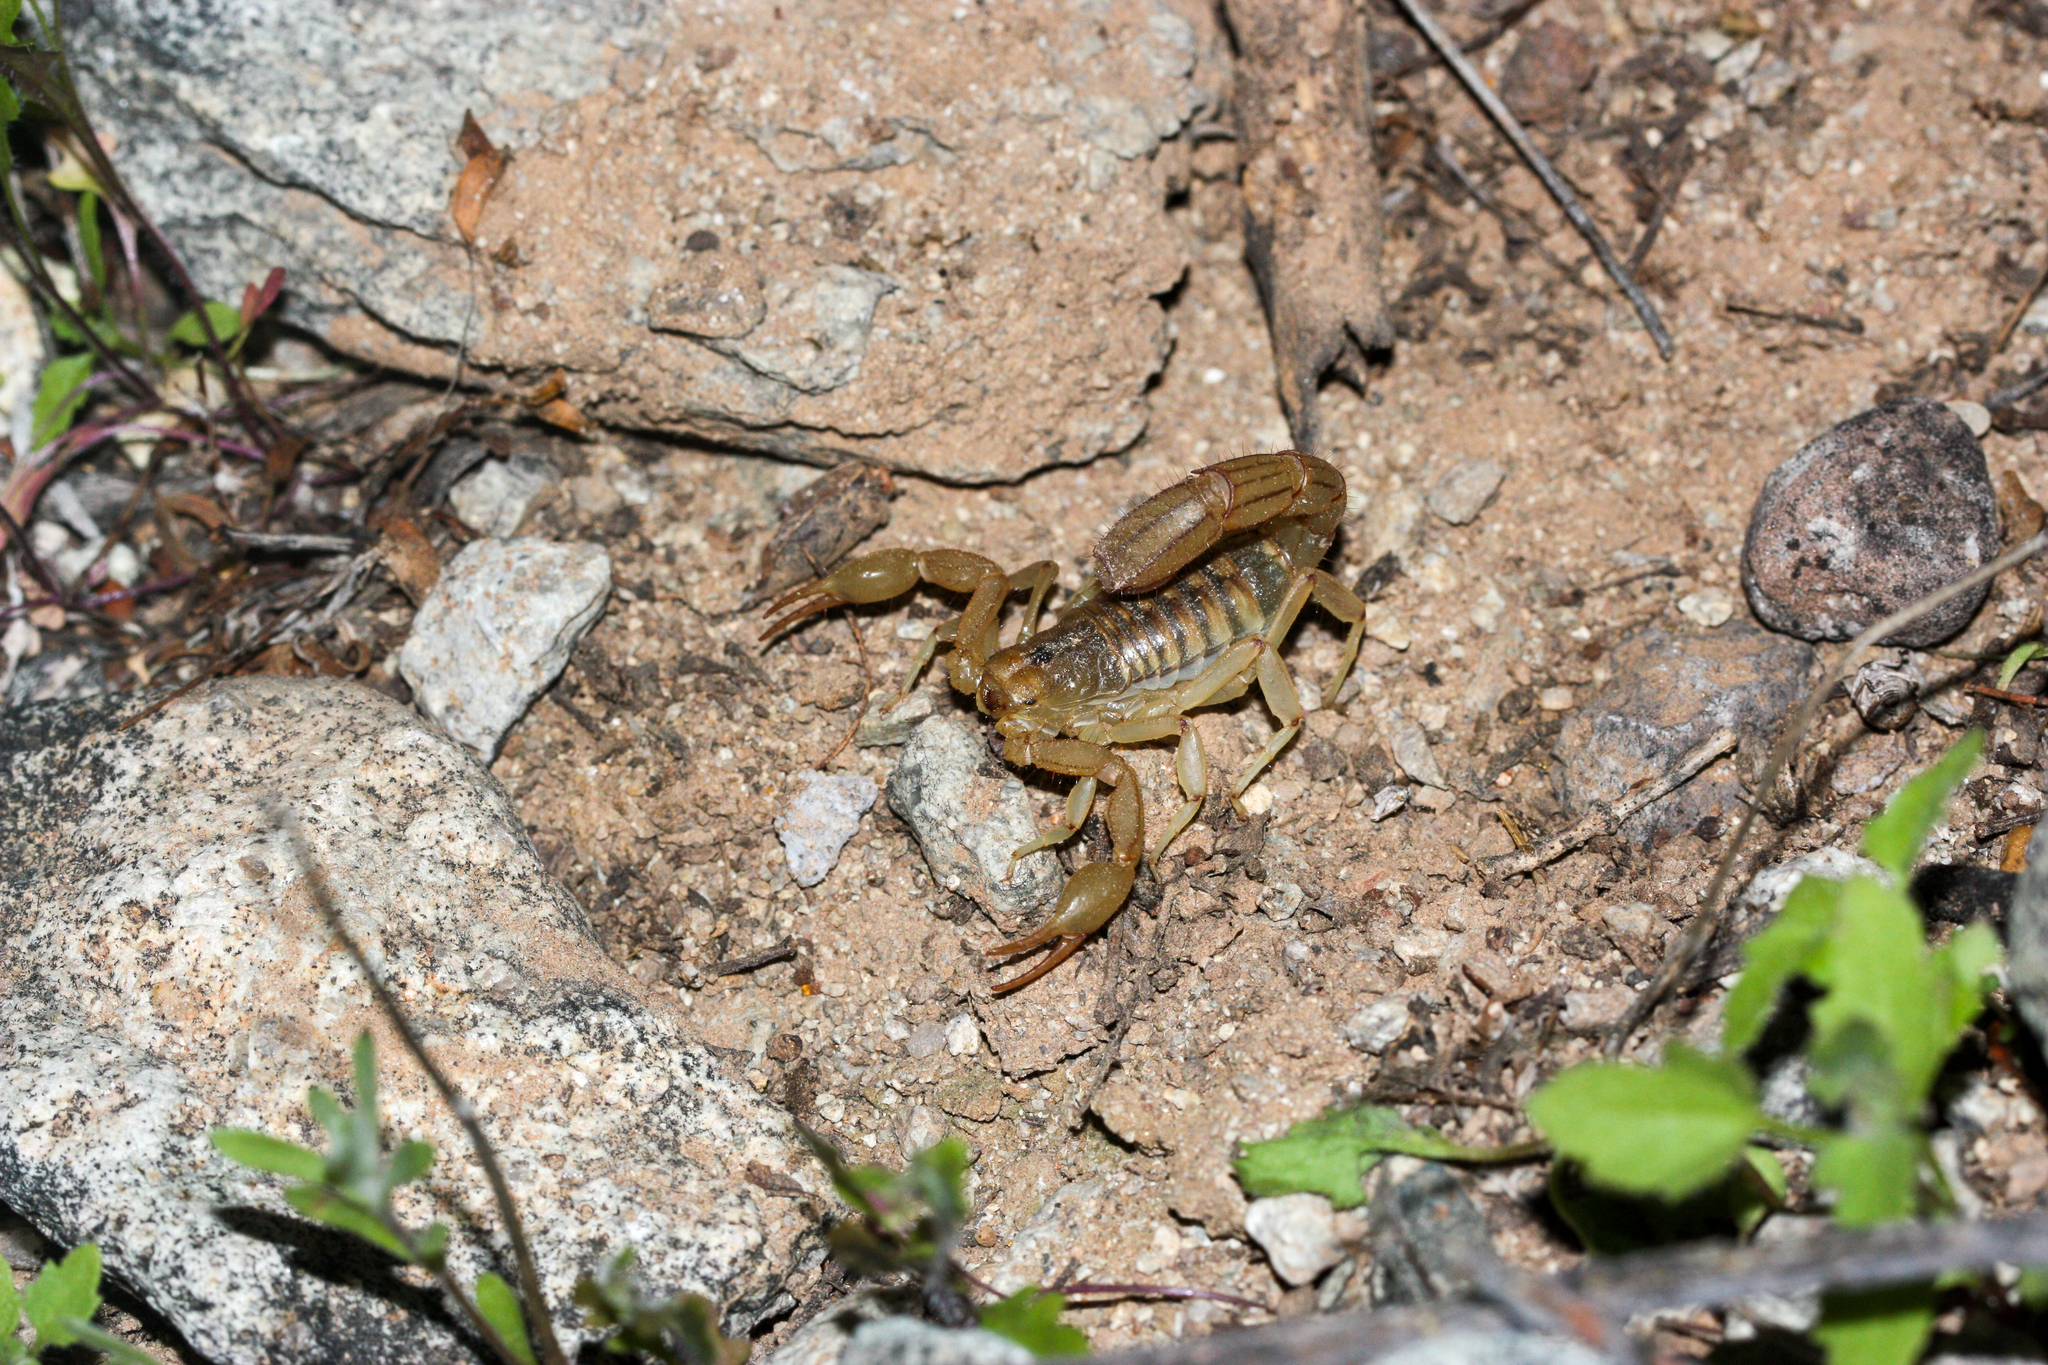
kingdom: Animalia
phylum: Arthropoda
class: Arachnida
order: Scorpiones
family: Vaejovidae
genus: Paravaejovis
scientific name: Paravaejovis spinigerus
